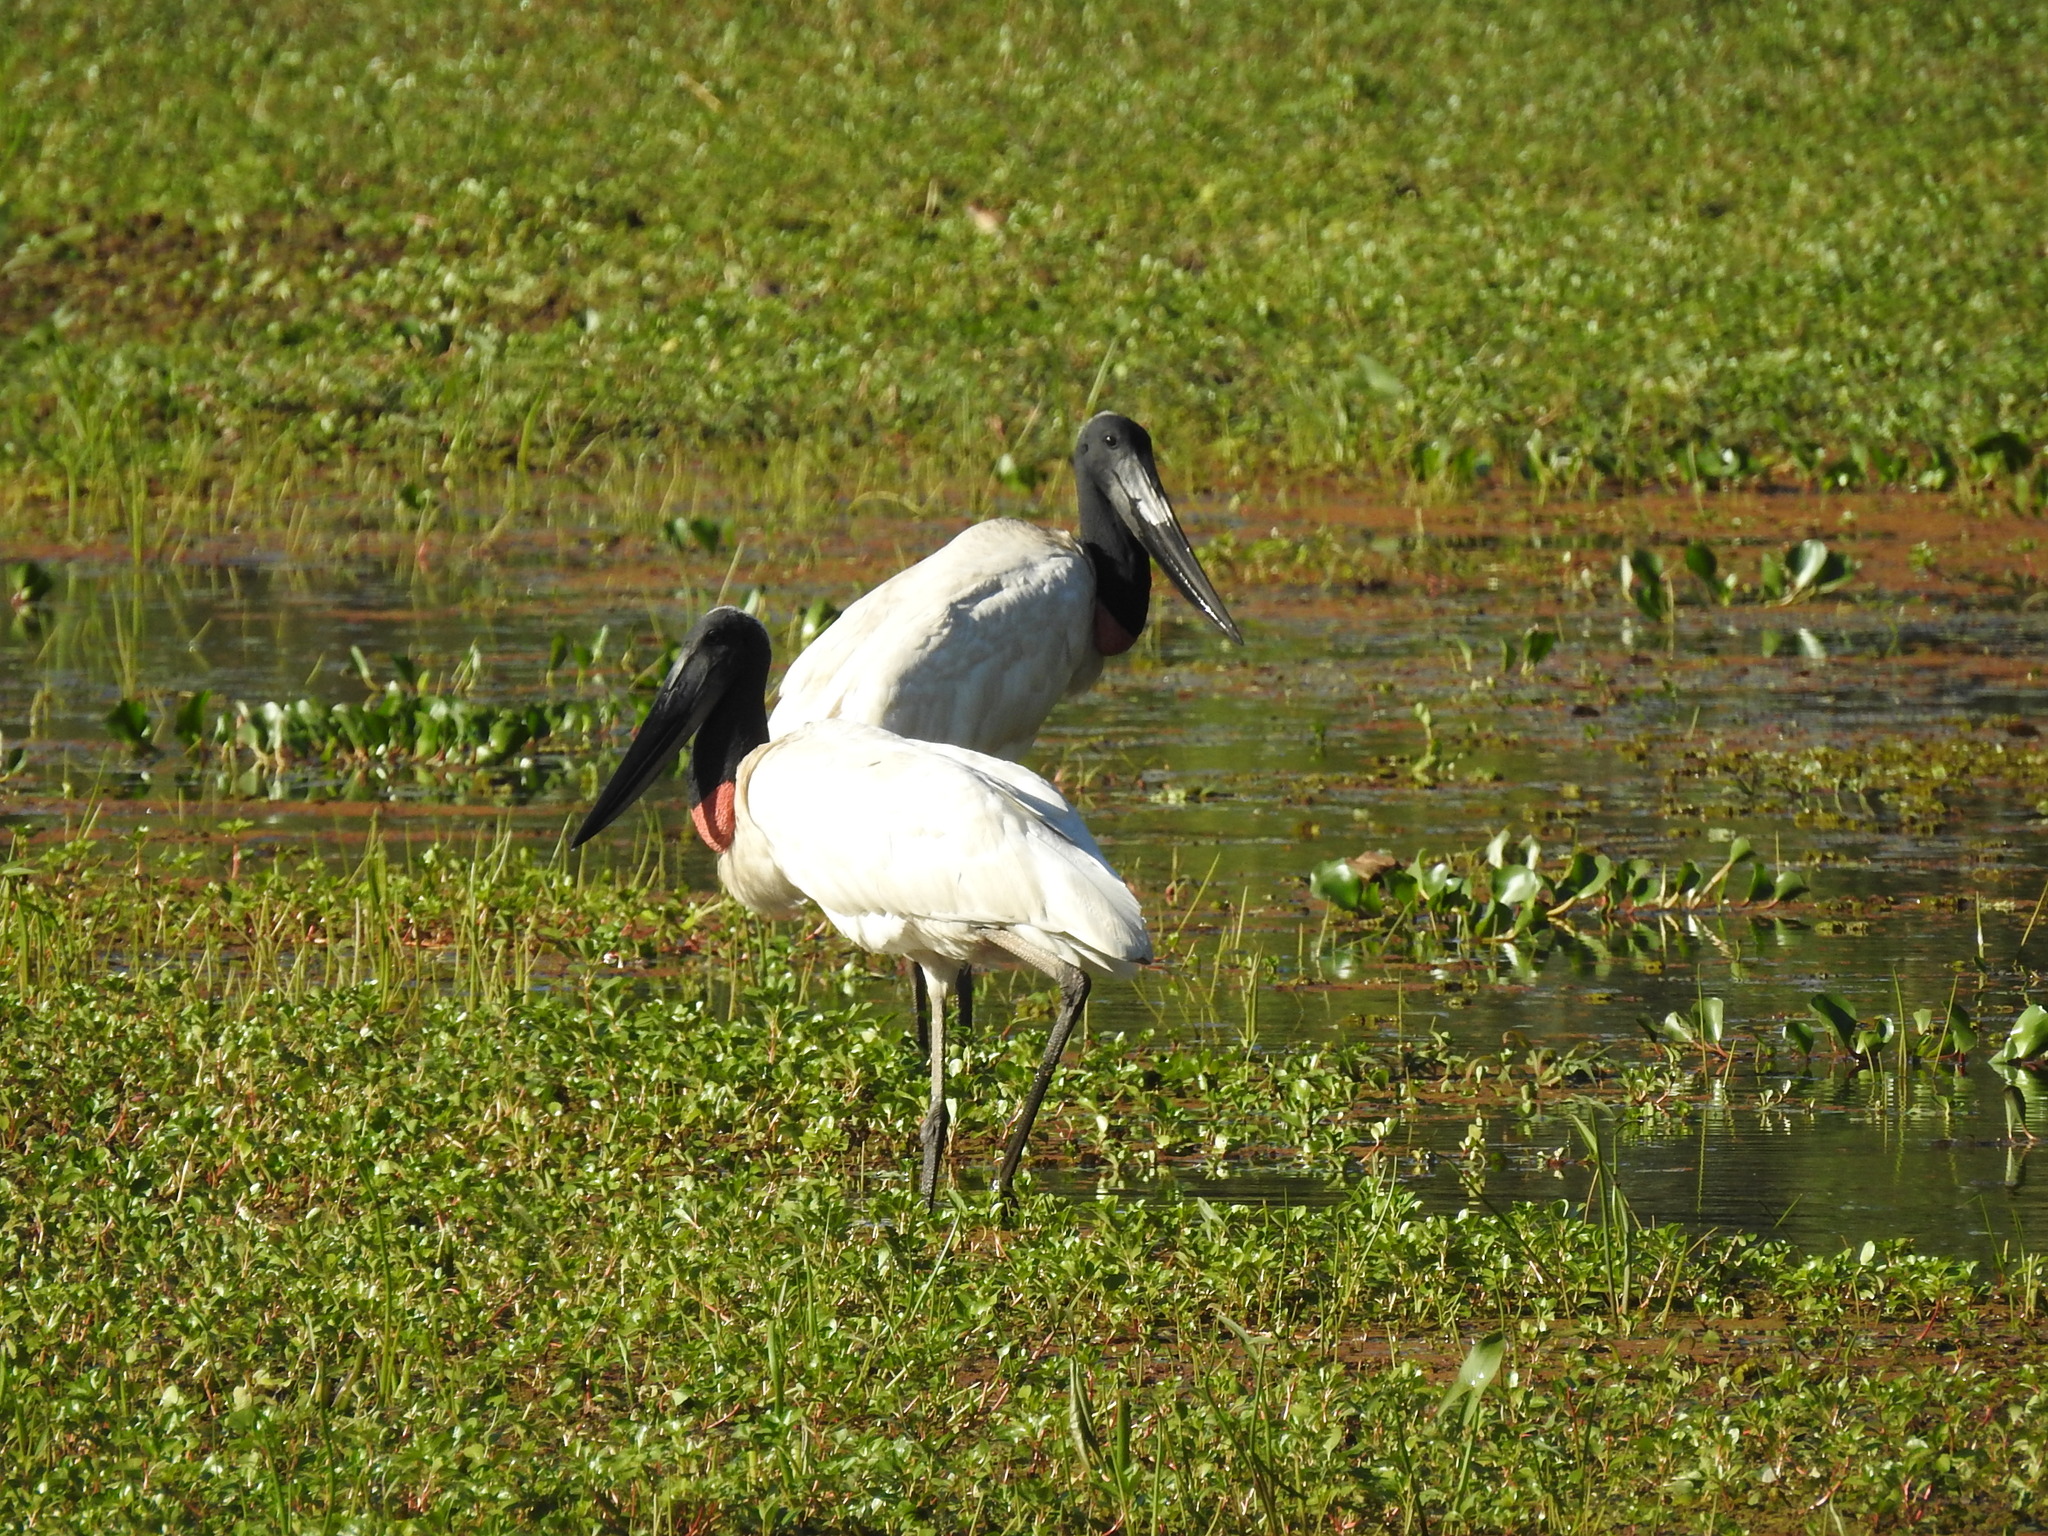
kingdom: Animalia
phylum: Chordata
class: Aves
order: Ciconiiformes
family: Ciconiidae
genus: Jabiru
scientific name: Jabiru mycteria
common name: Jabiru
